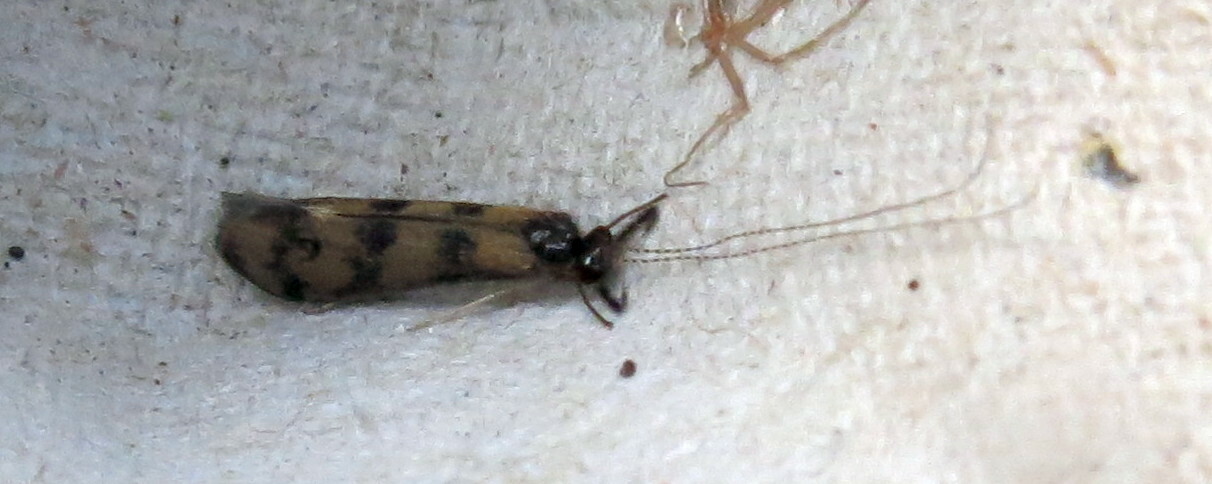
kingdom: Animalia
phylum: Arthropoda
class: Insecta
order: Trichoptera
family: Leptoceridae
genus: Mystacides
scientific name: Mystacides longicornis
